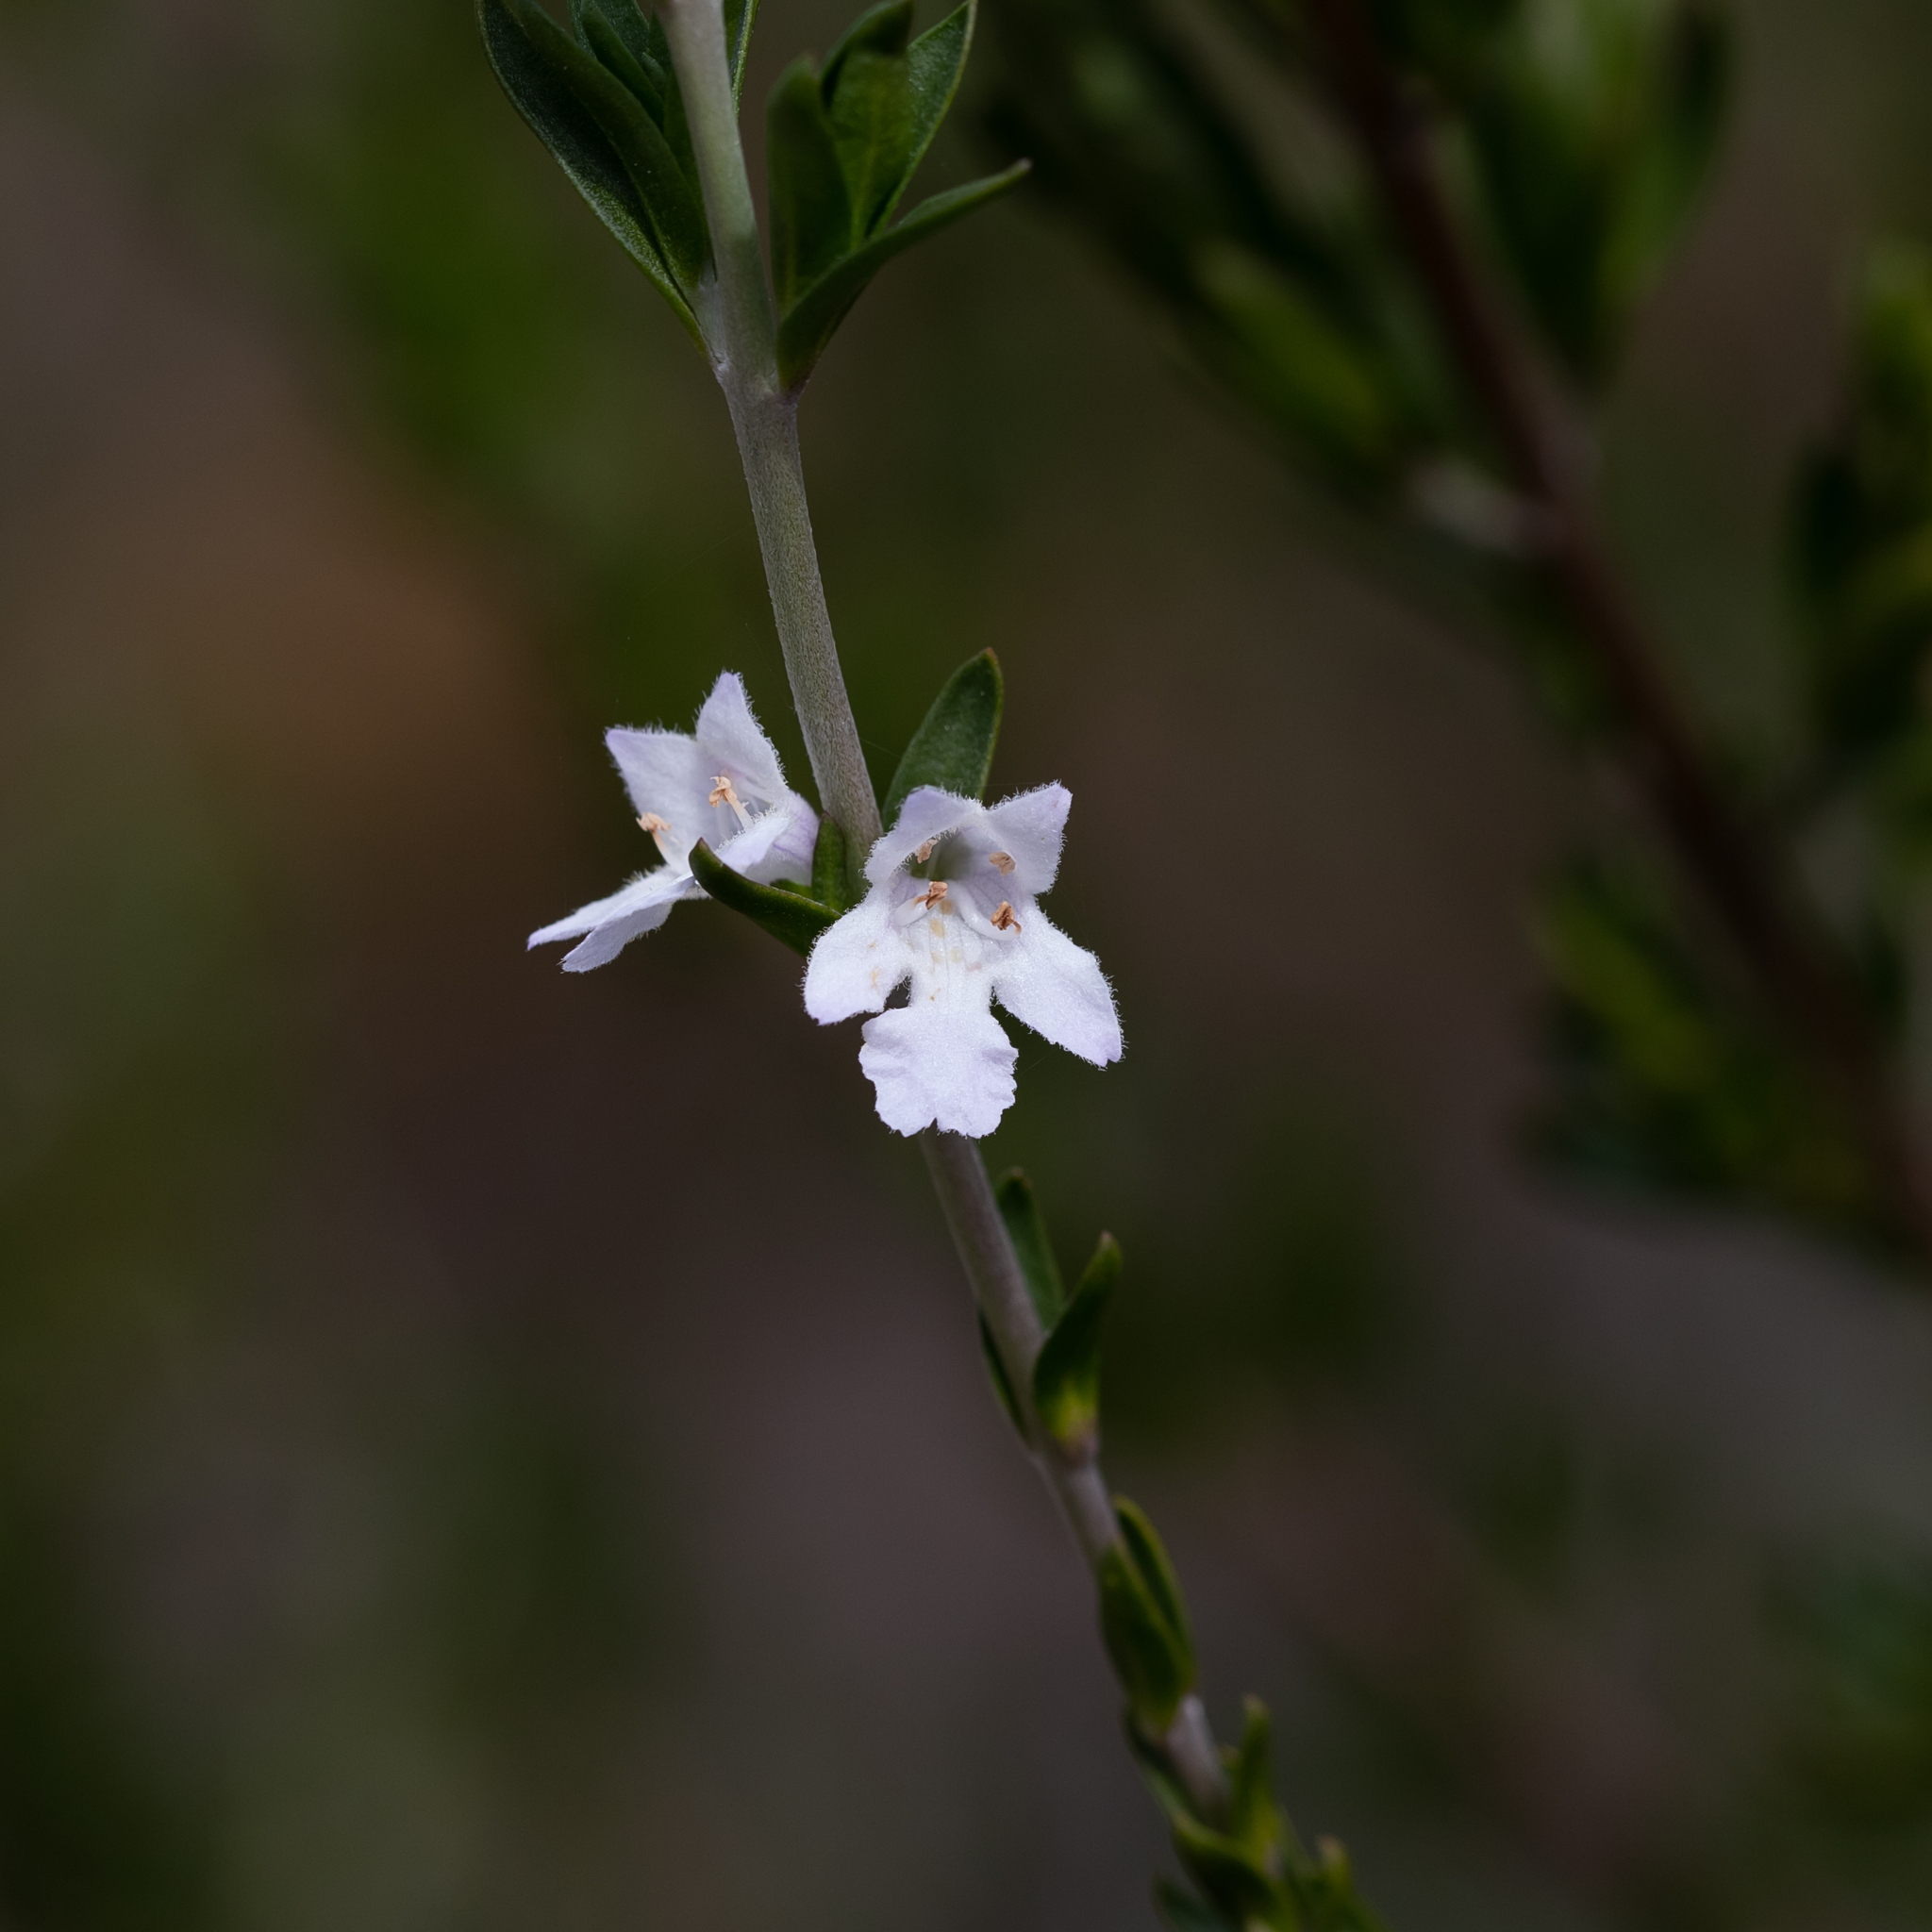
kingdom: Plantae
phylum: Tracheophyta
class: Magnoliopsida
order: Lamiales
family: Lamiaceae
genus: Prostanthera
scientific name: Prostanthera behriana
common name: Downy mintbush
